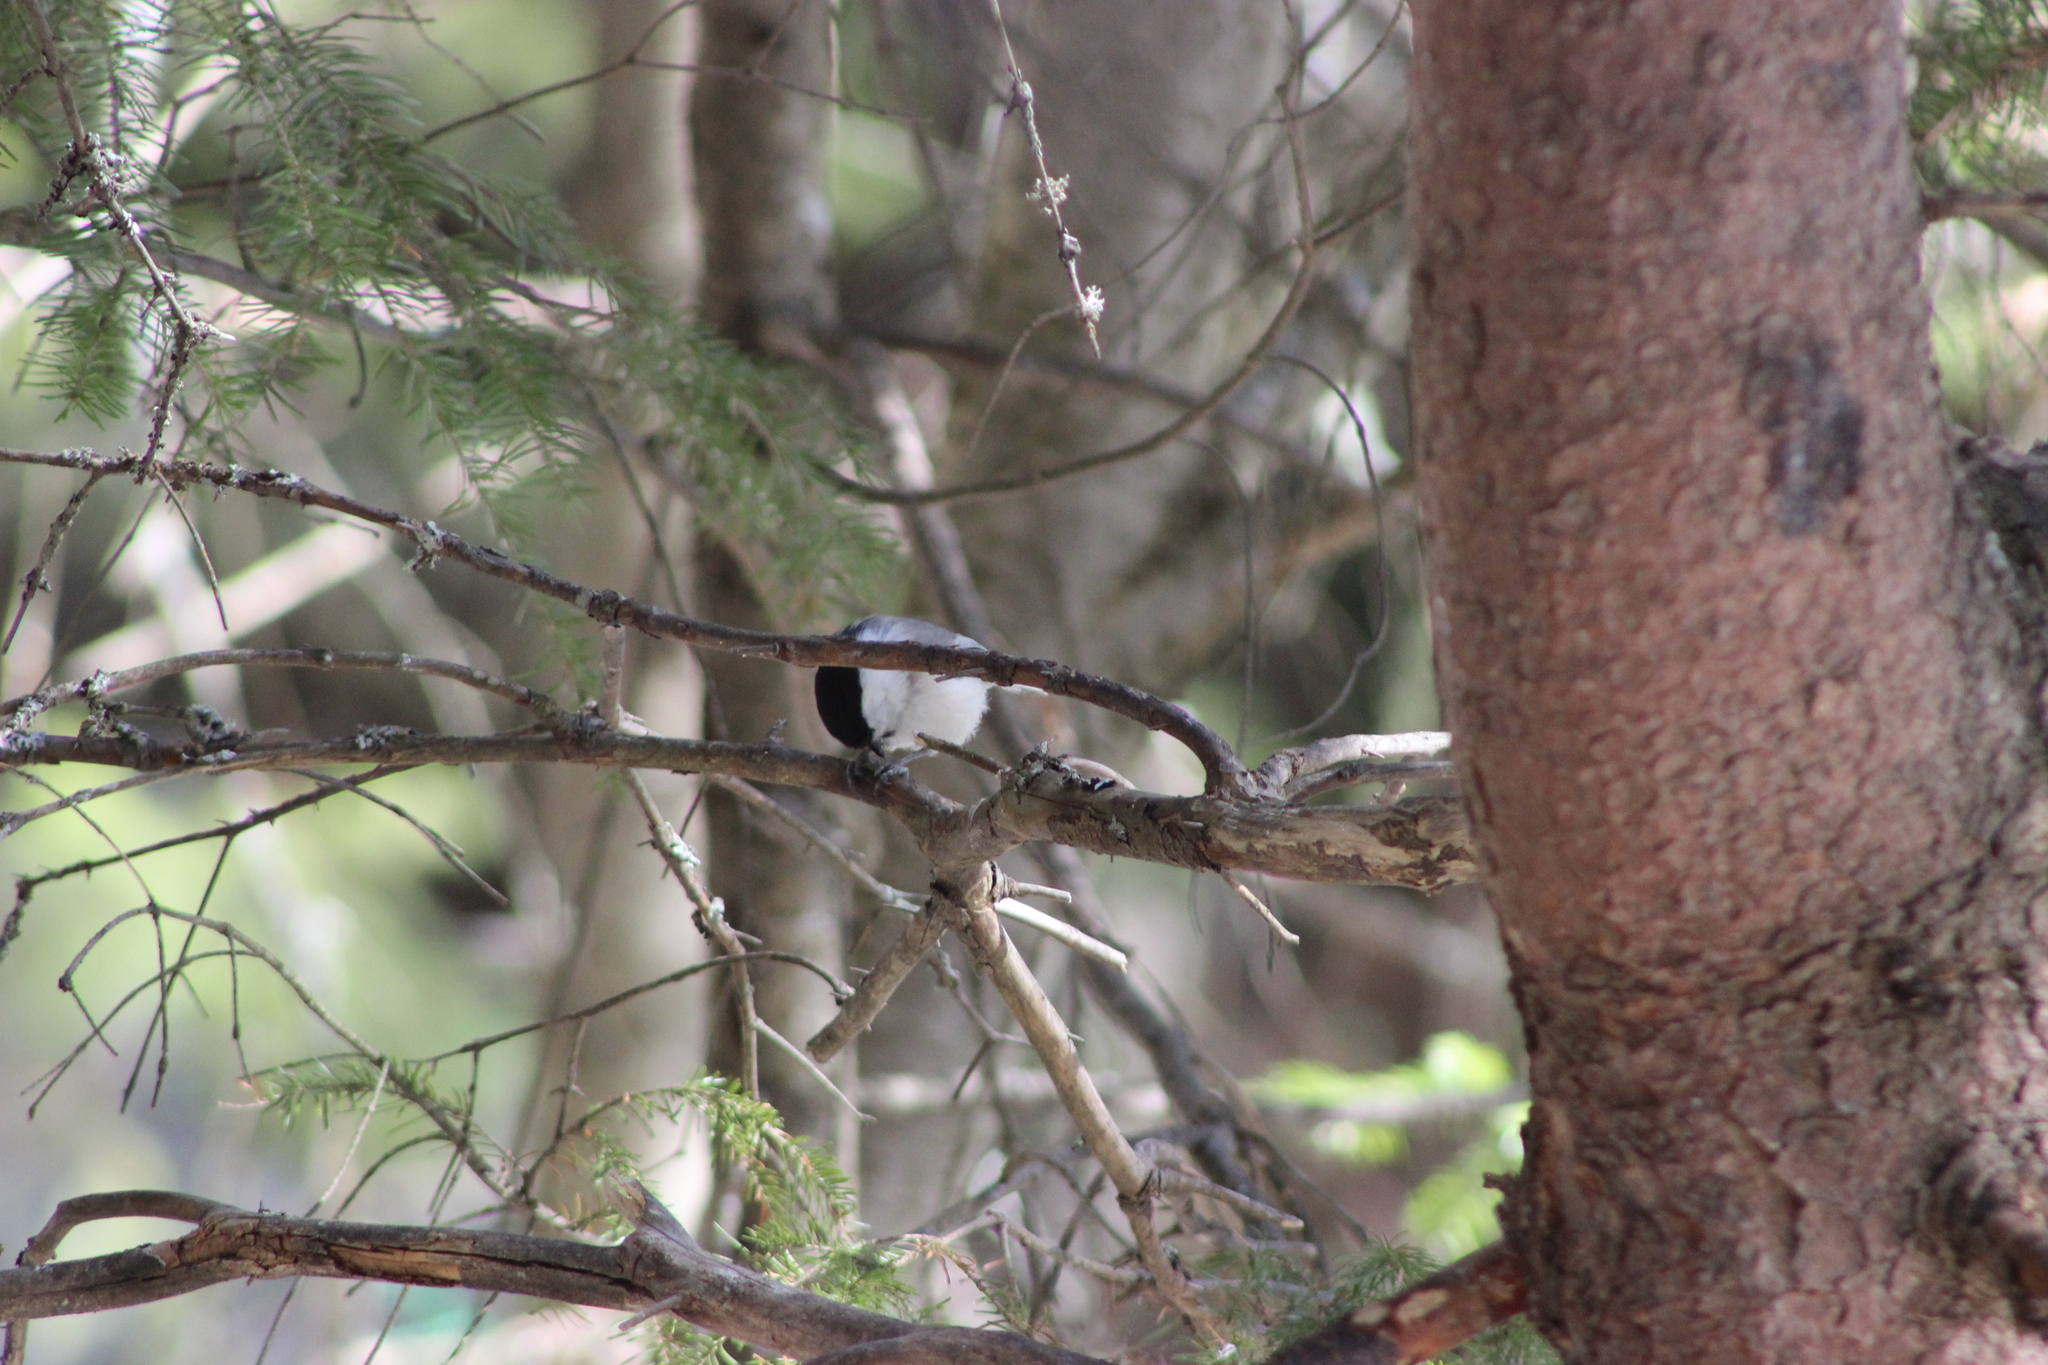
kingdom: Animalia
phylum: Chordata
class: Aves
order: Passeriformes
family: Paridae
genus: Poecile
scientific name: Poecile montanus
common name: Willow tit
